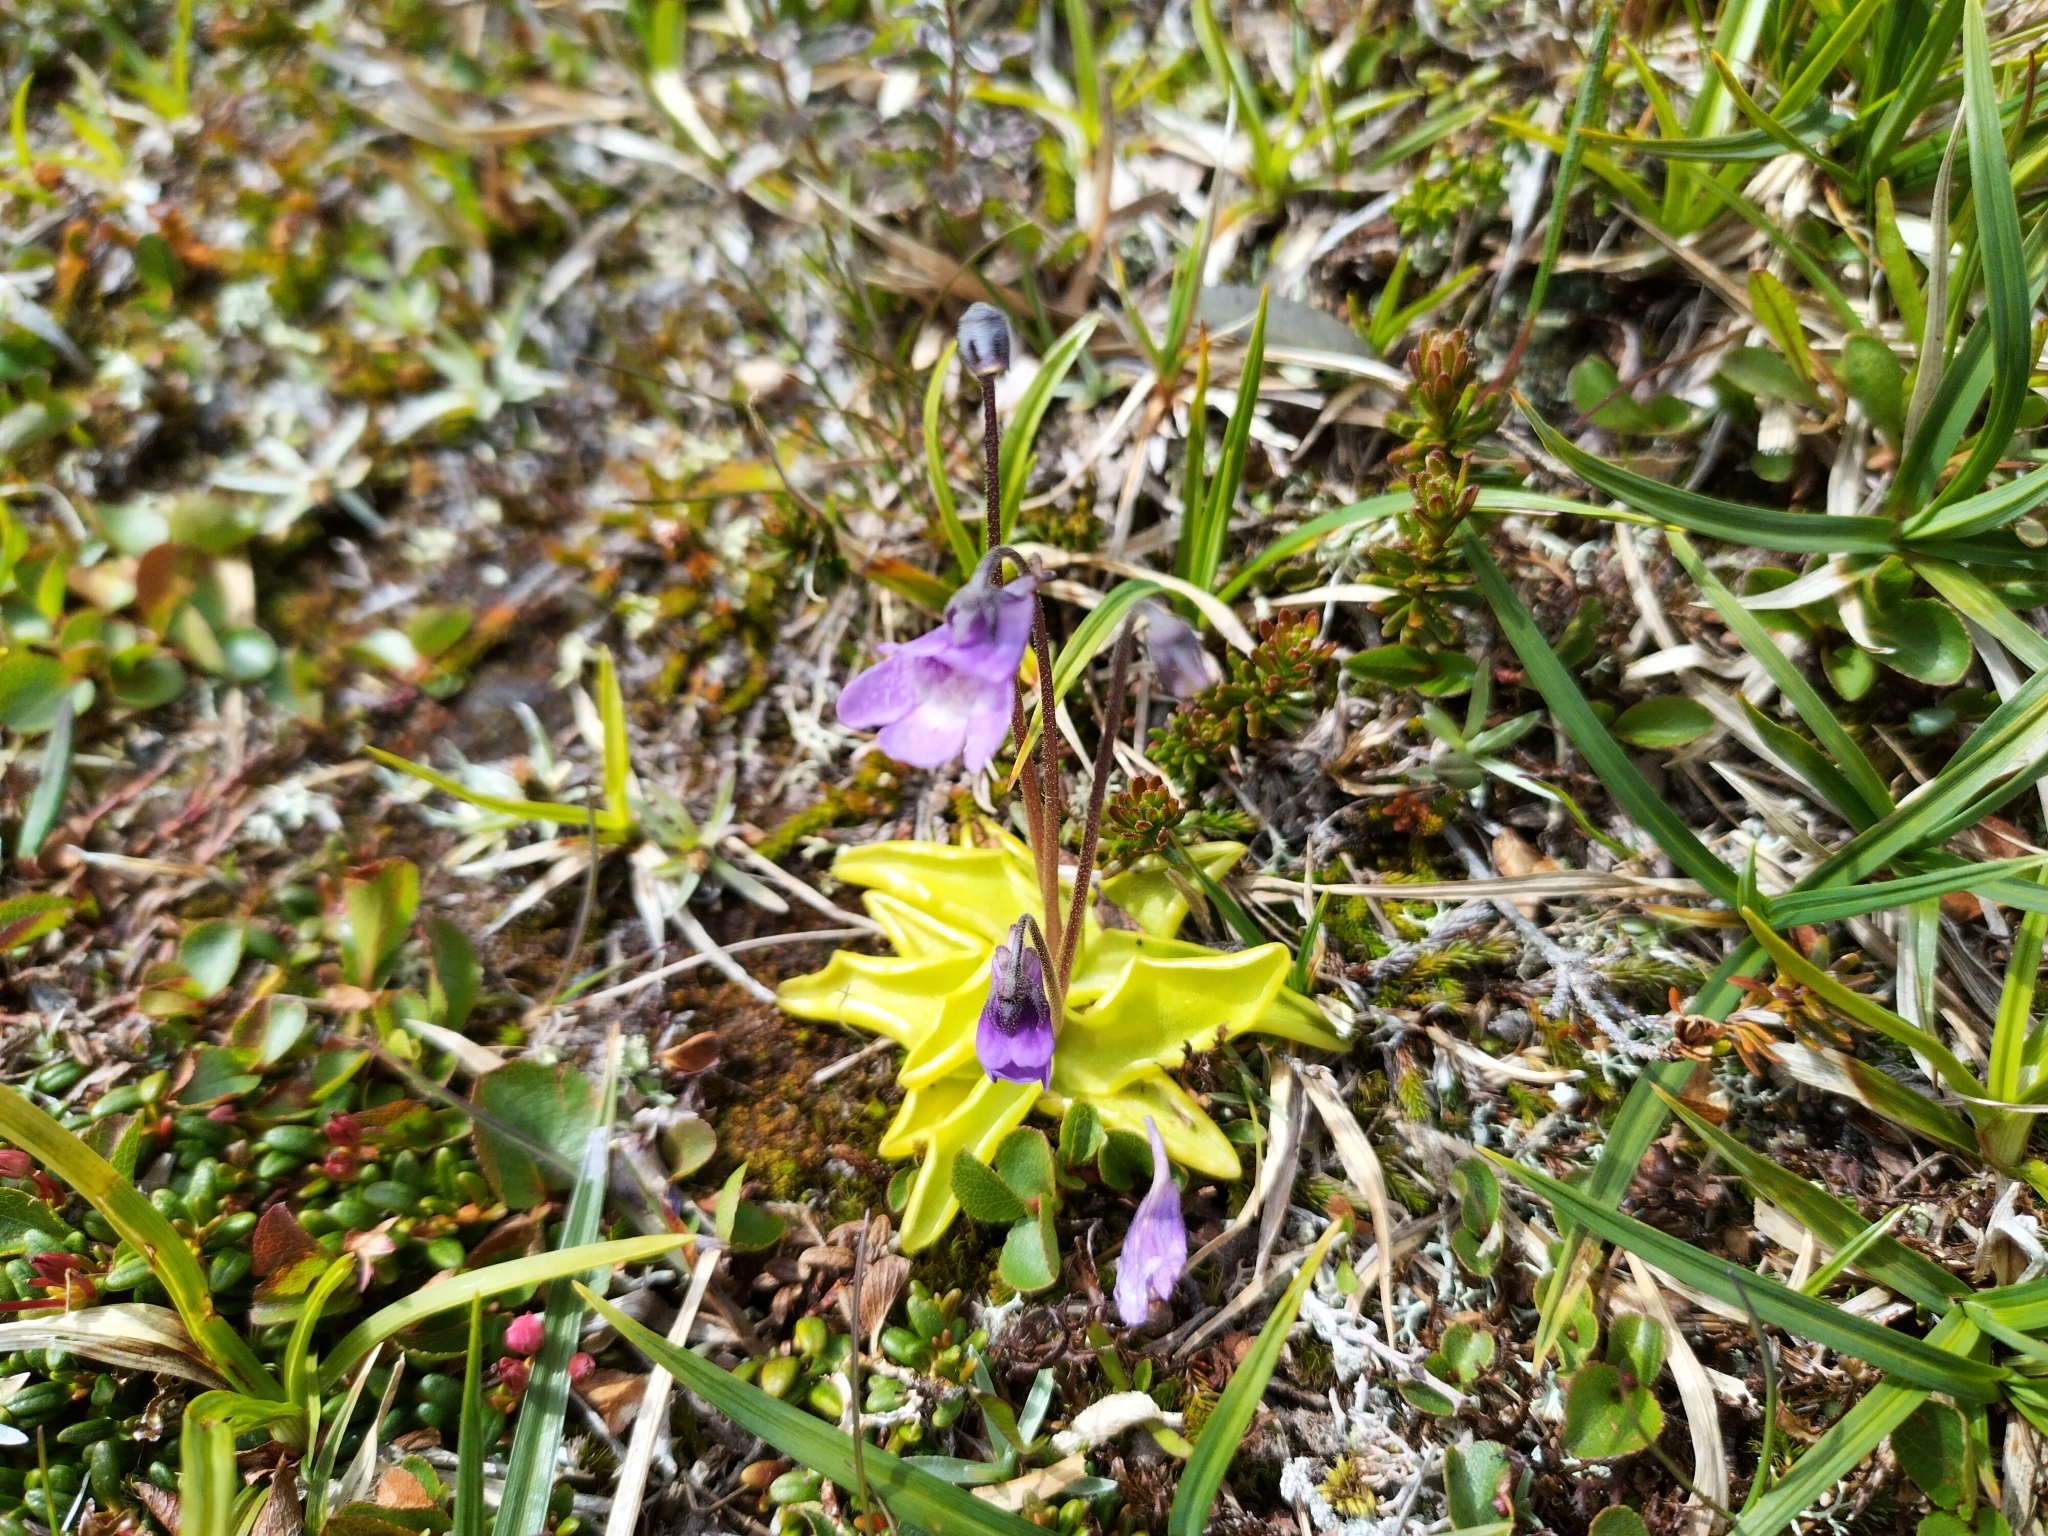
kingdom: Plantae
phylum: Tracheophyta
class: Magnoliopsida
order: Lamiales
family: Lentibulariaceae
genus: Pinguicula
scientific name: Pinguicula vulgaris
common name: Common butterwort
